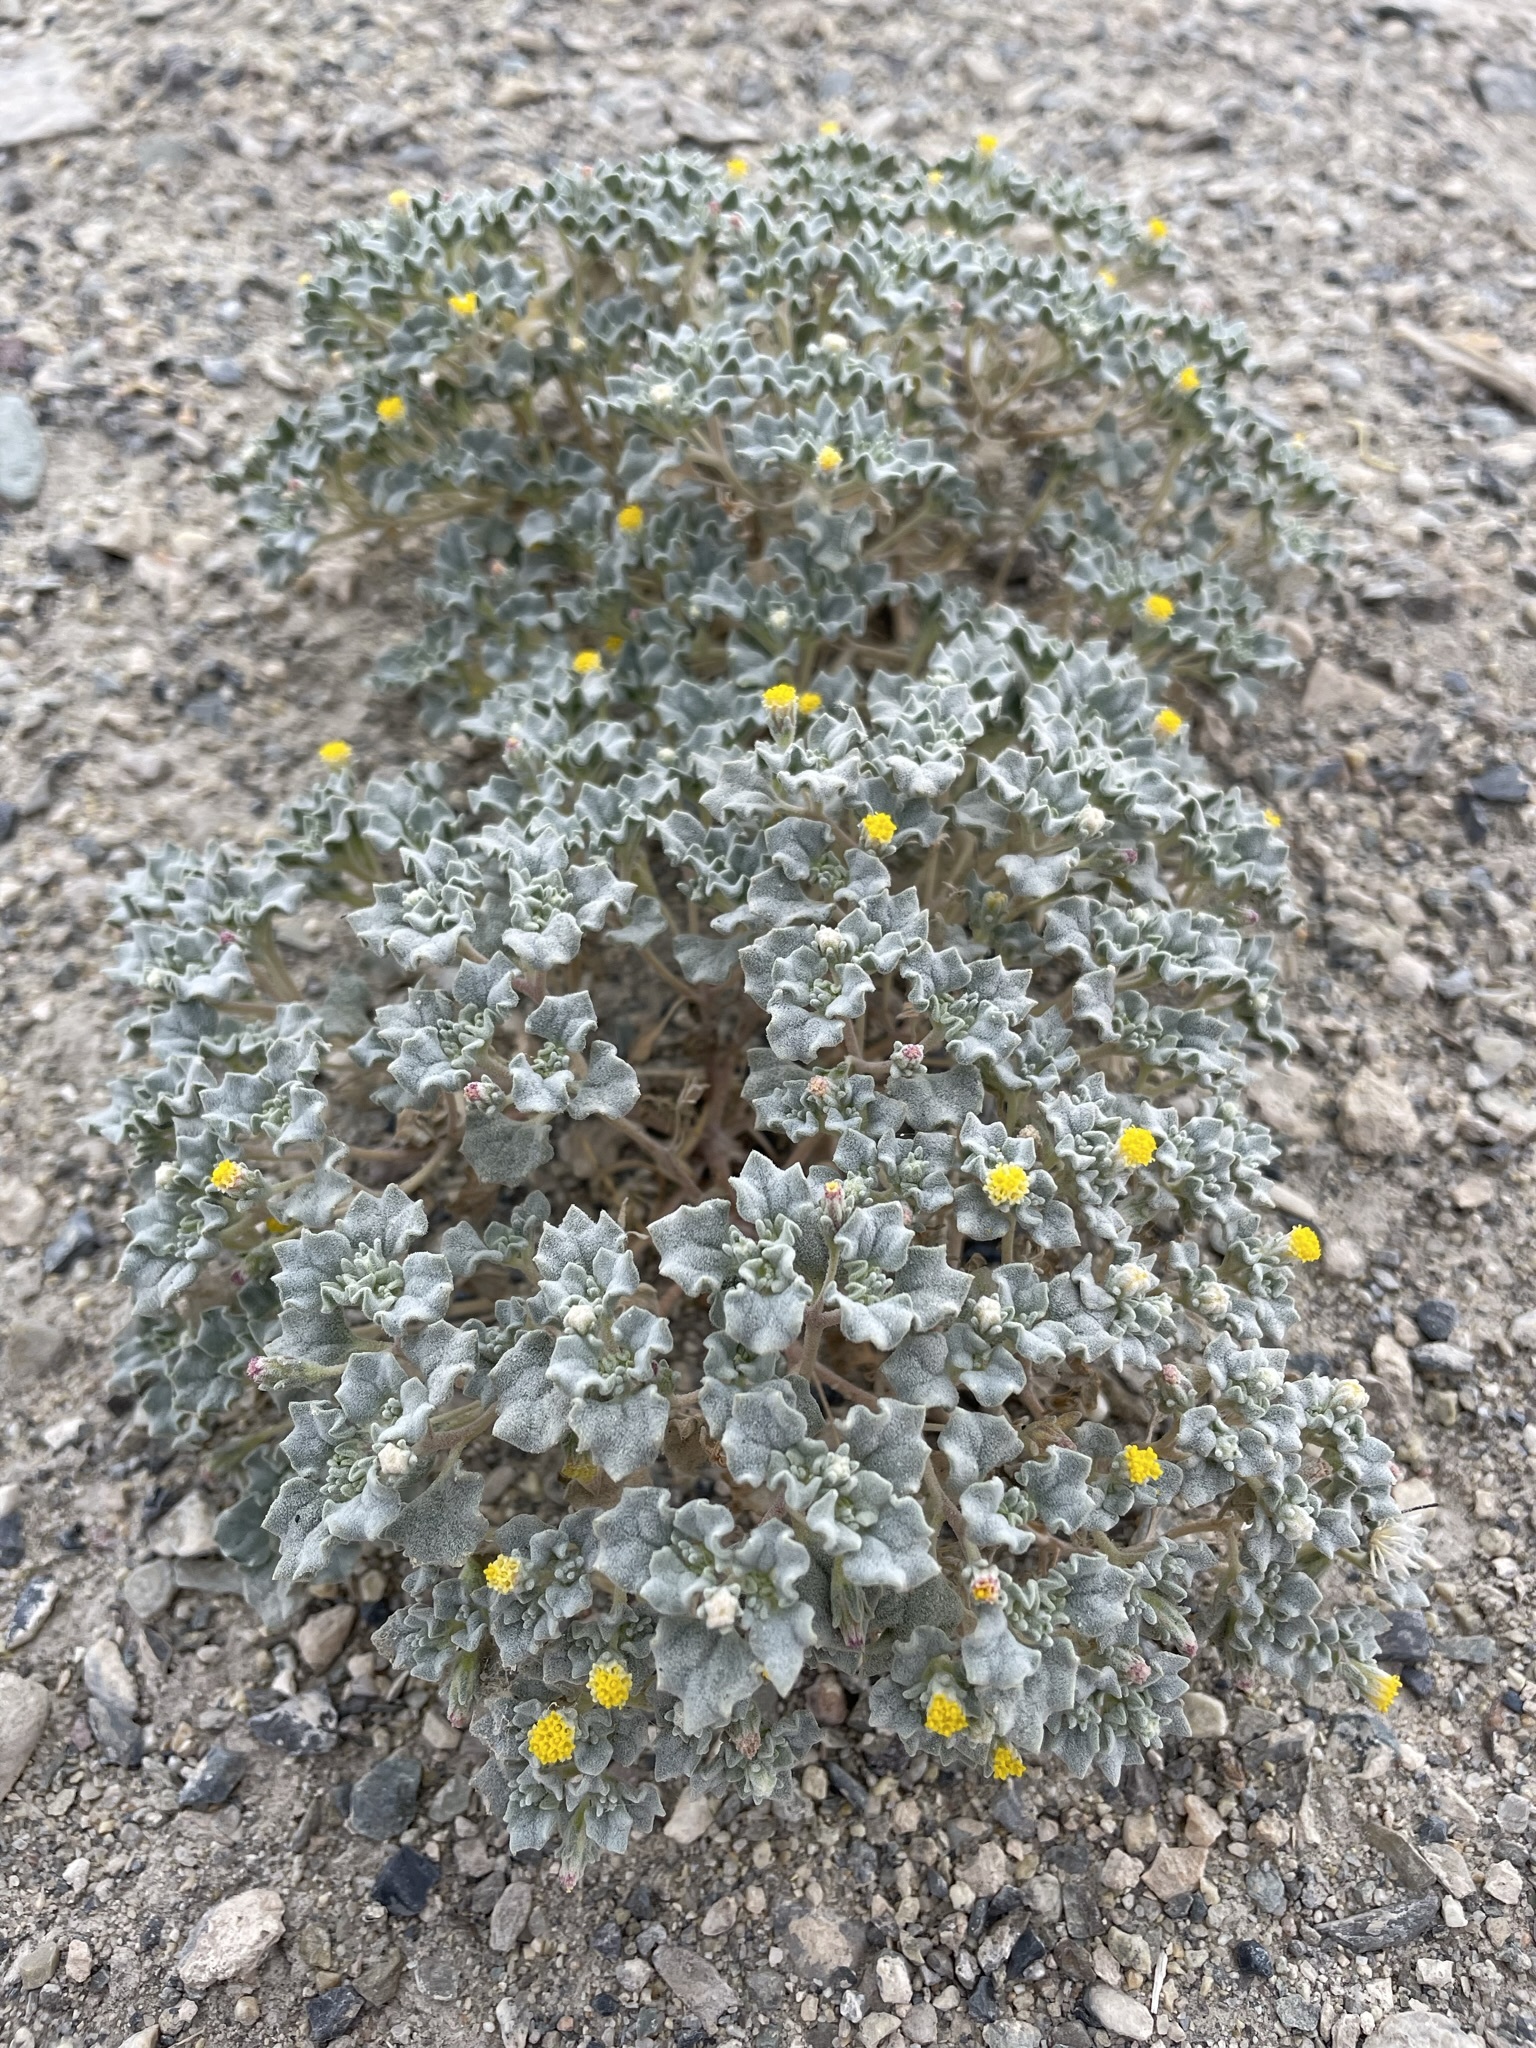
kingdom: Plantae
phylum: Tracheophyta
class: Magnoliopsida
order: Asterales
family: Asteraceae
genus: Psathyrotes
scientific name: Psathyrotes annua
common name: Mealy rosettes
